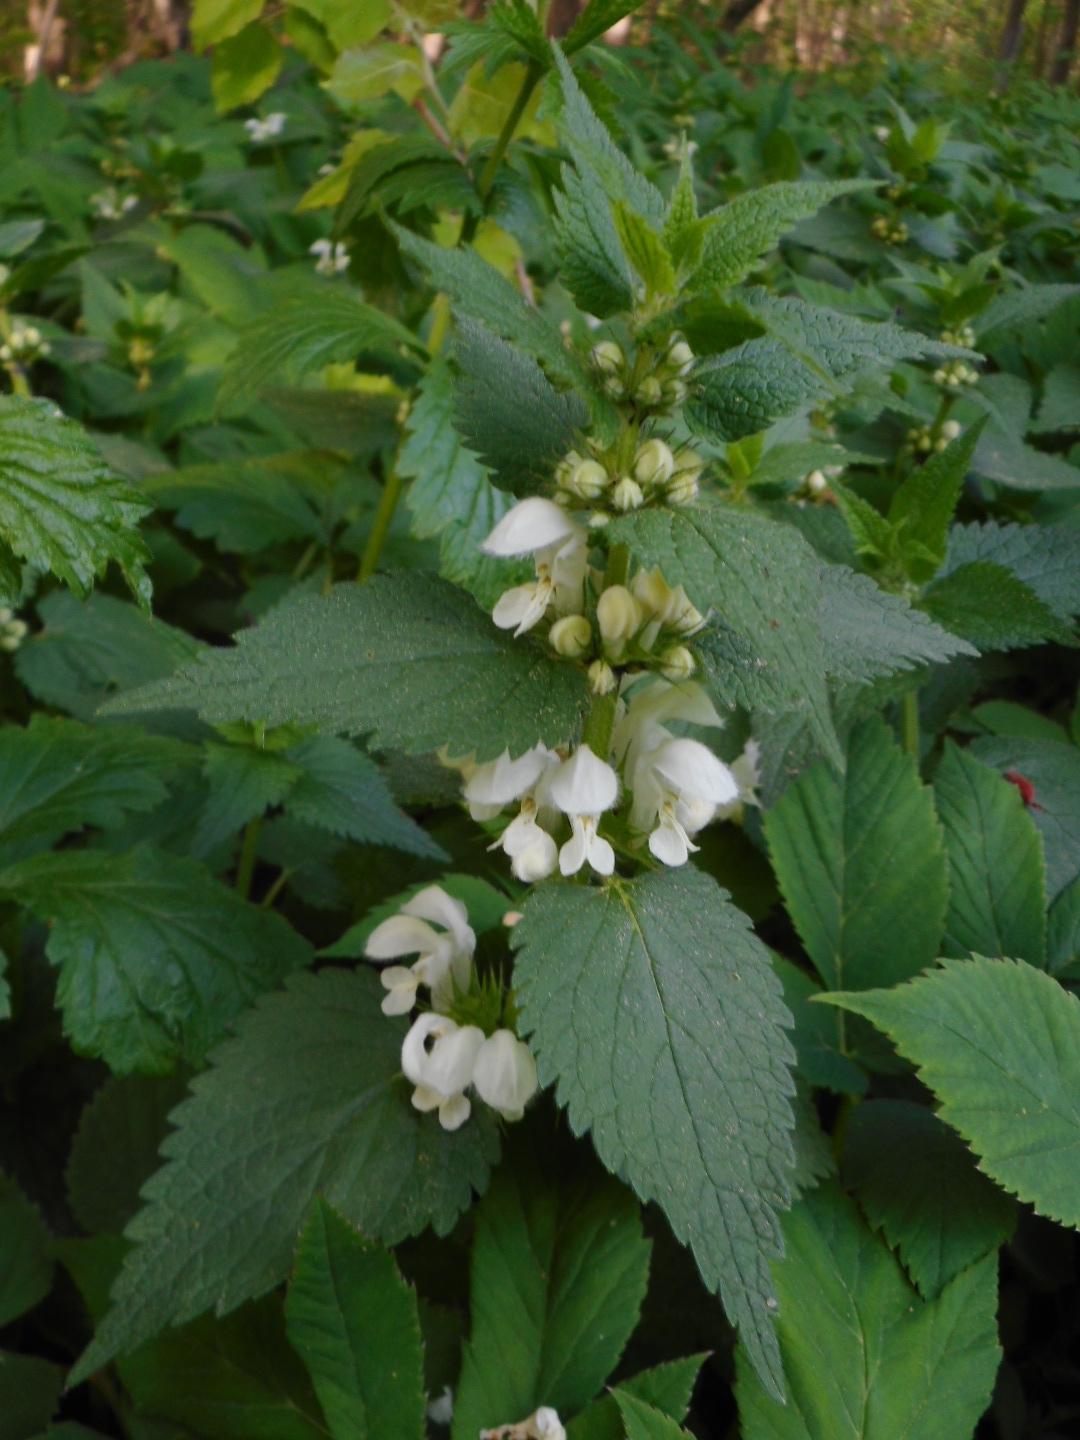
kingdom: Plantae
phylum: Tracheophyta
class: Magnoliopsida
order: Lamiales
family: Lamiaceae
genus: Lamium
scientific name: Lamium album
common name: White dead-nettle
